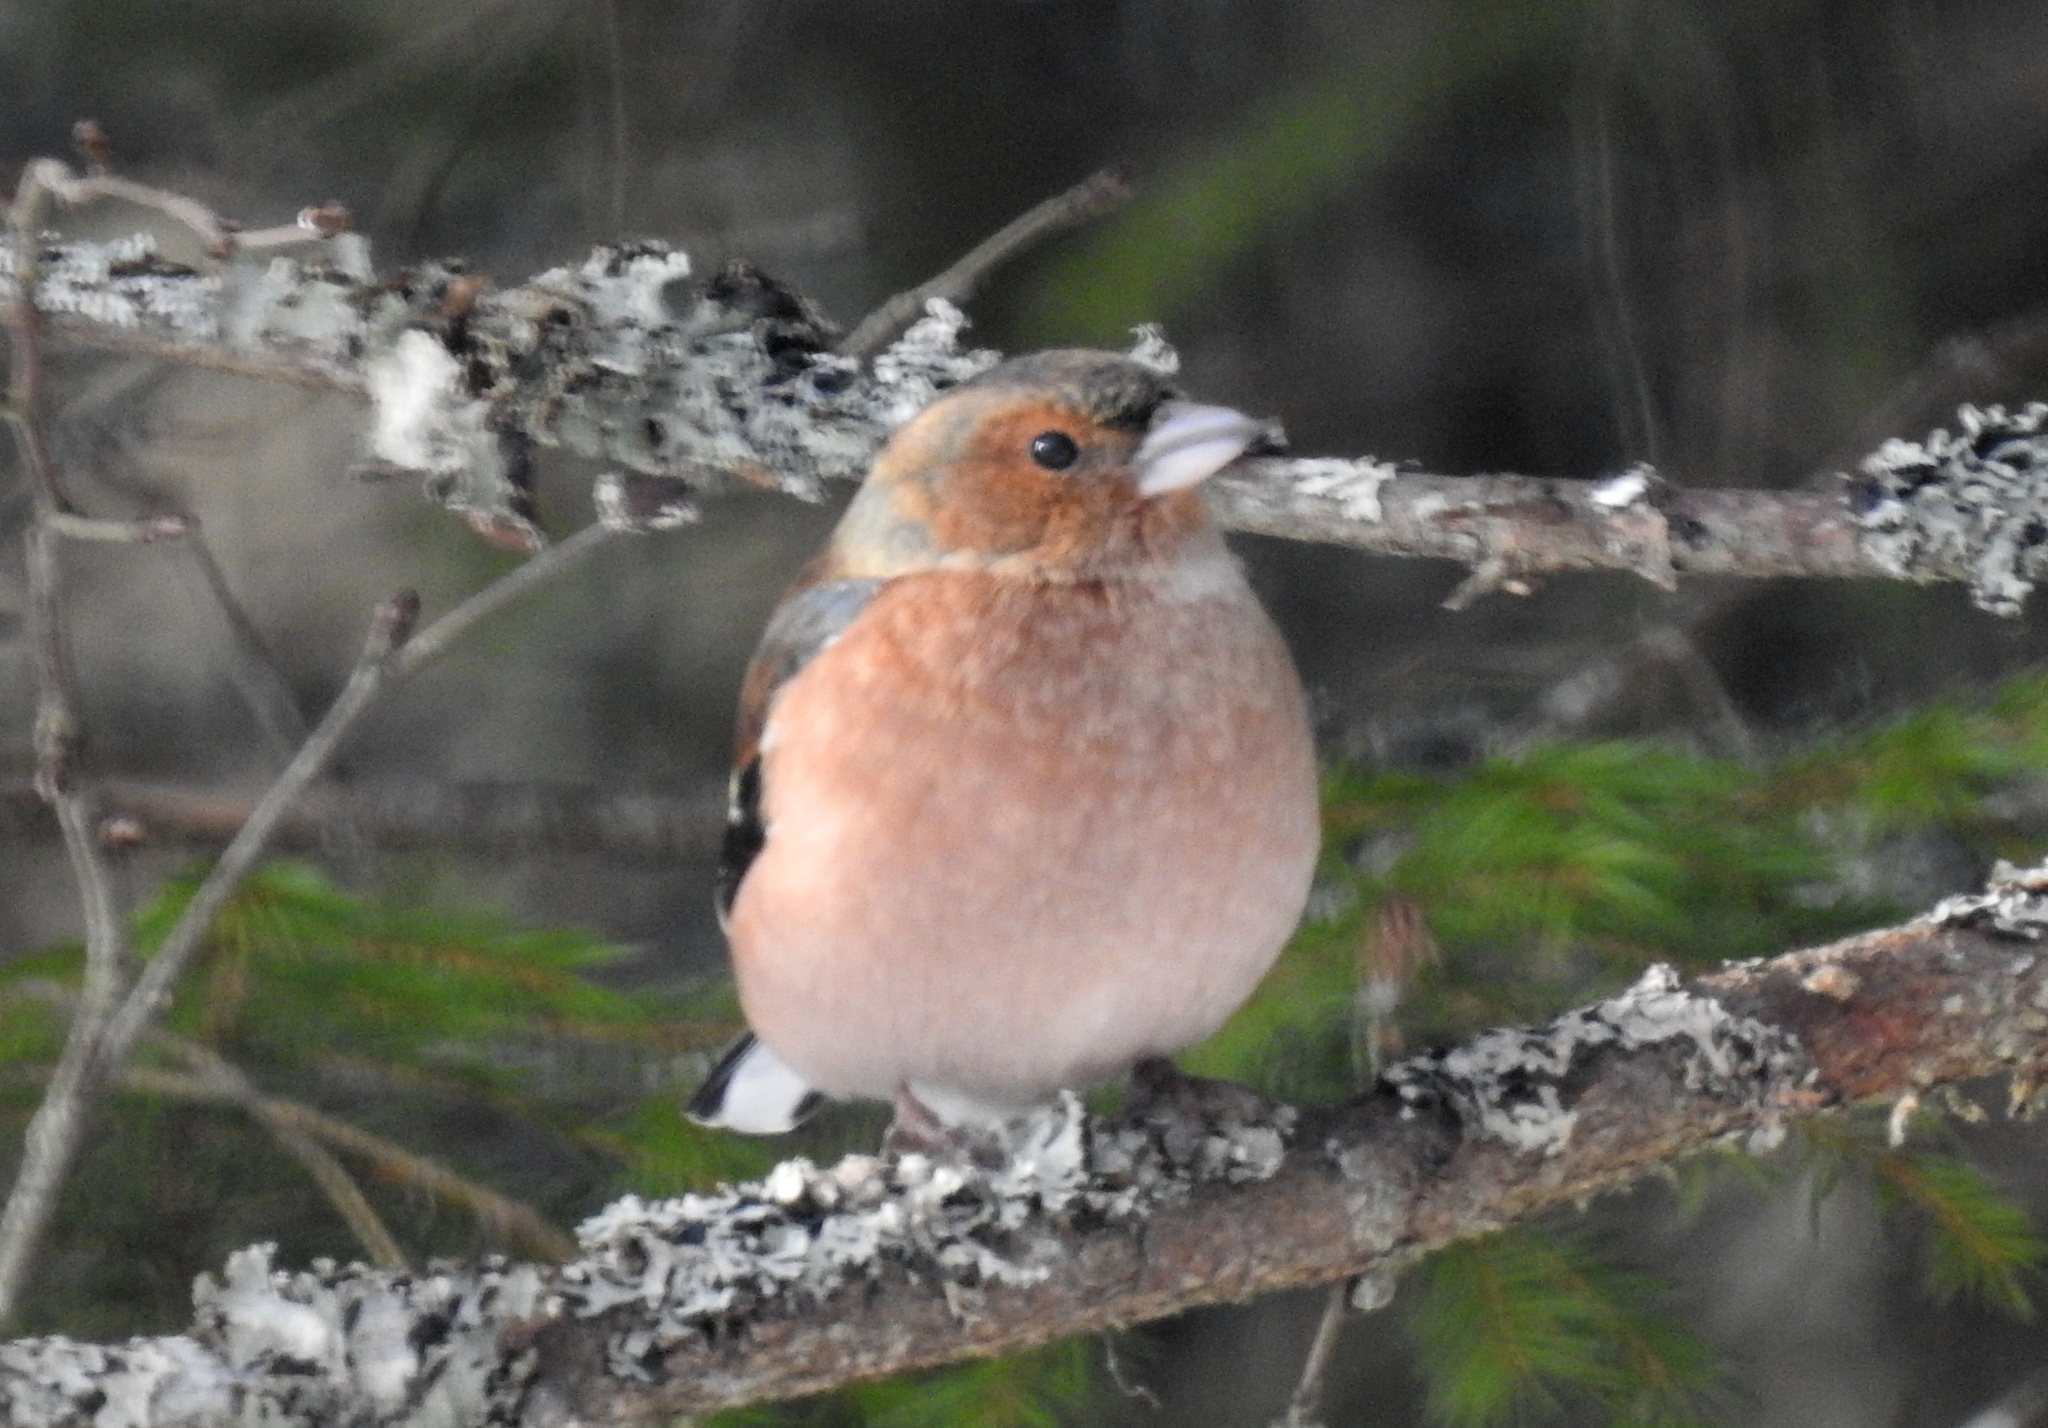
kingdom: Animalia
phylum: Chordata
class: Aves
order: Passeriformes
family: Fringillidae
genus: Fringilla
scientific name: Fringilla coelebs
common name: Common chaffinch
